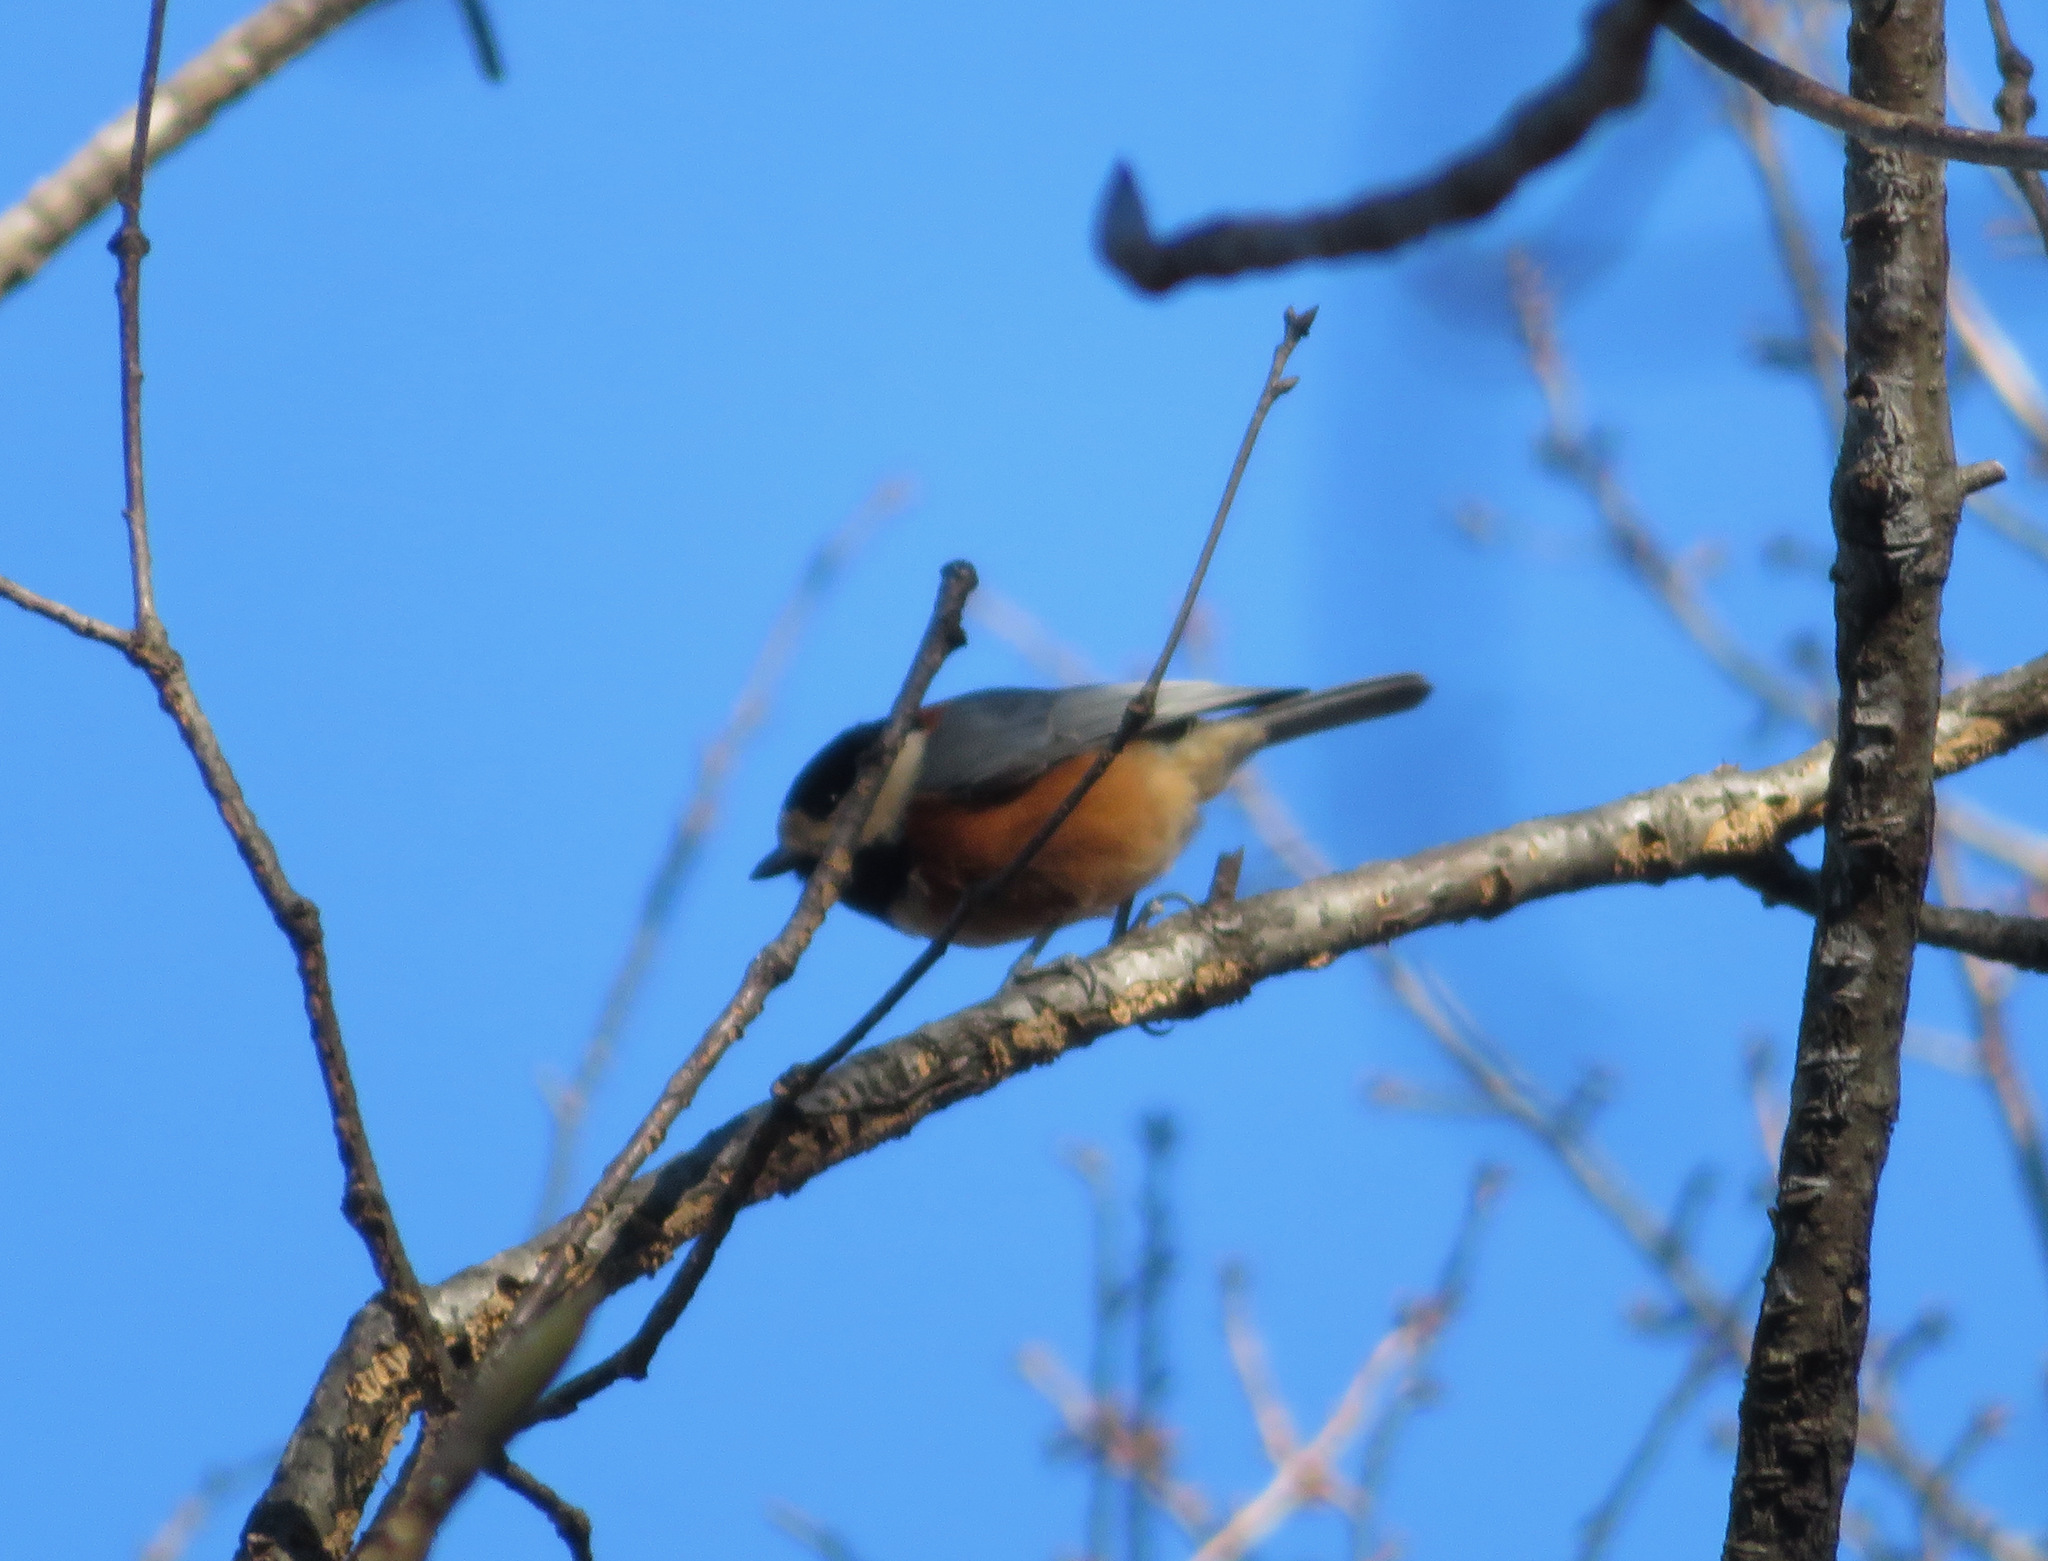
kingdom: Animalia
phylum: Chordata
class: Aves
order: Passeriformes
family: Paridae
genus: Poecile
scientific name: Poecile varius
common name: Varied tit
